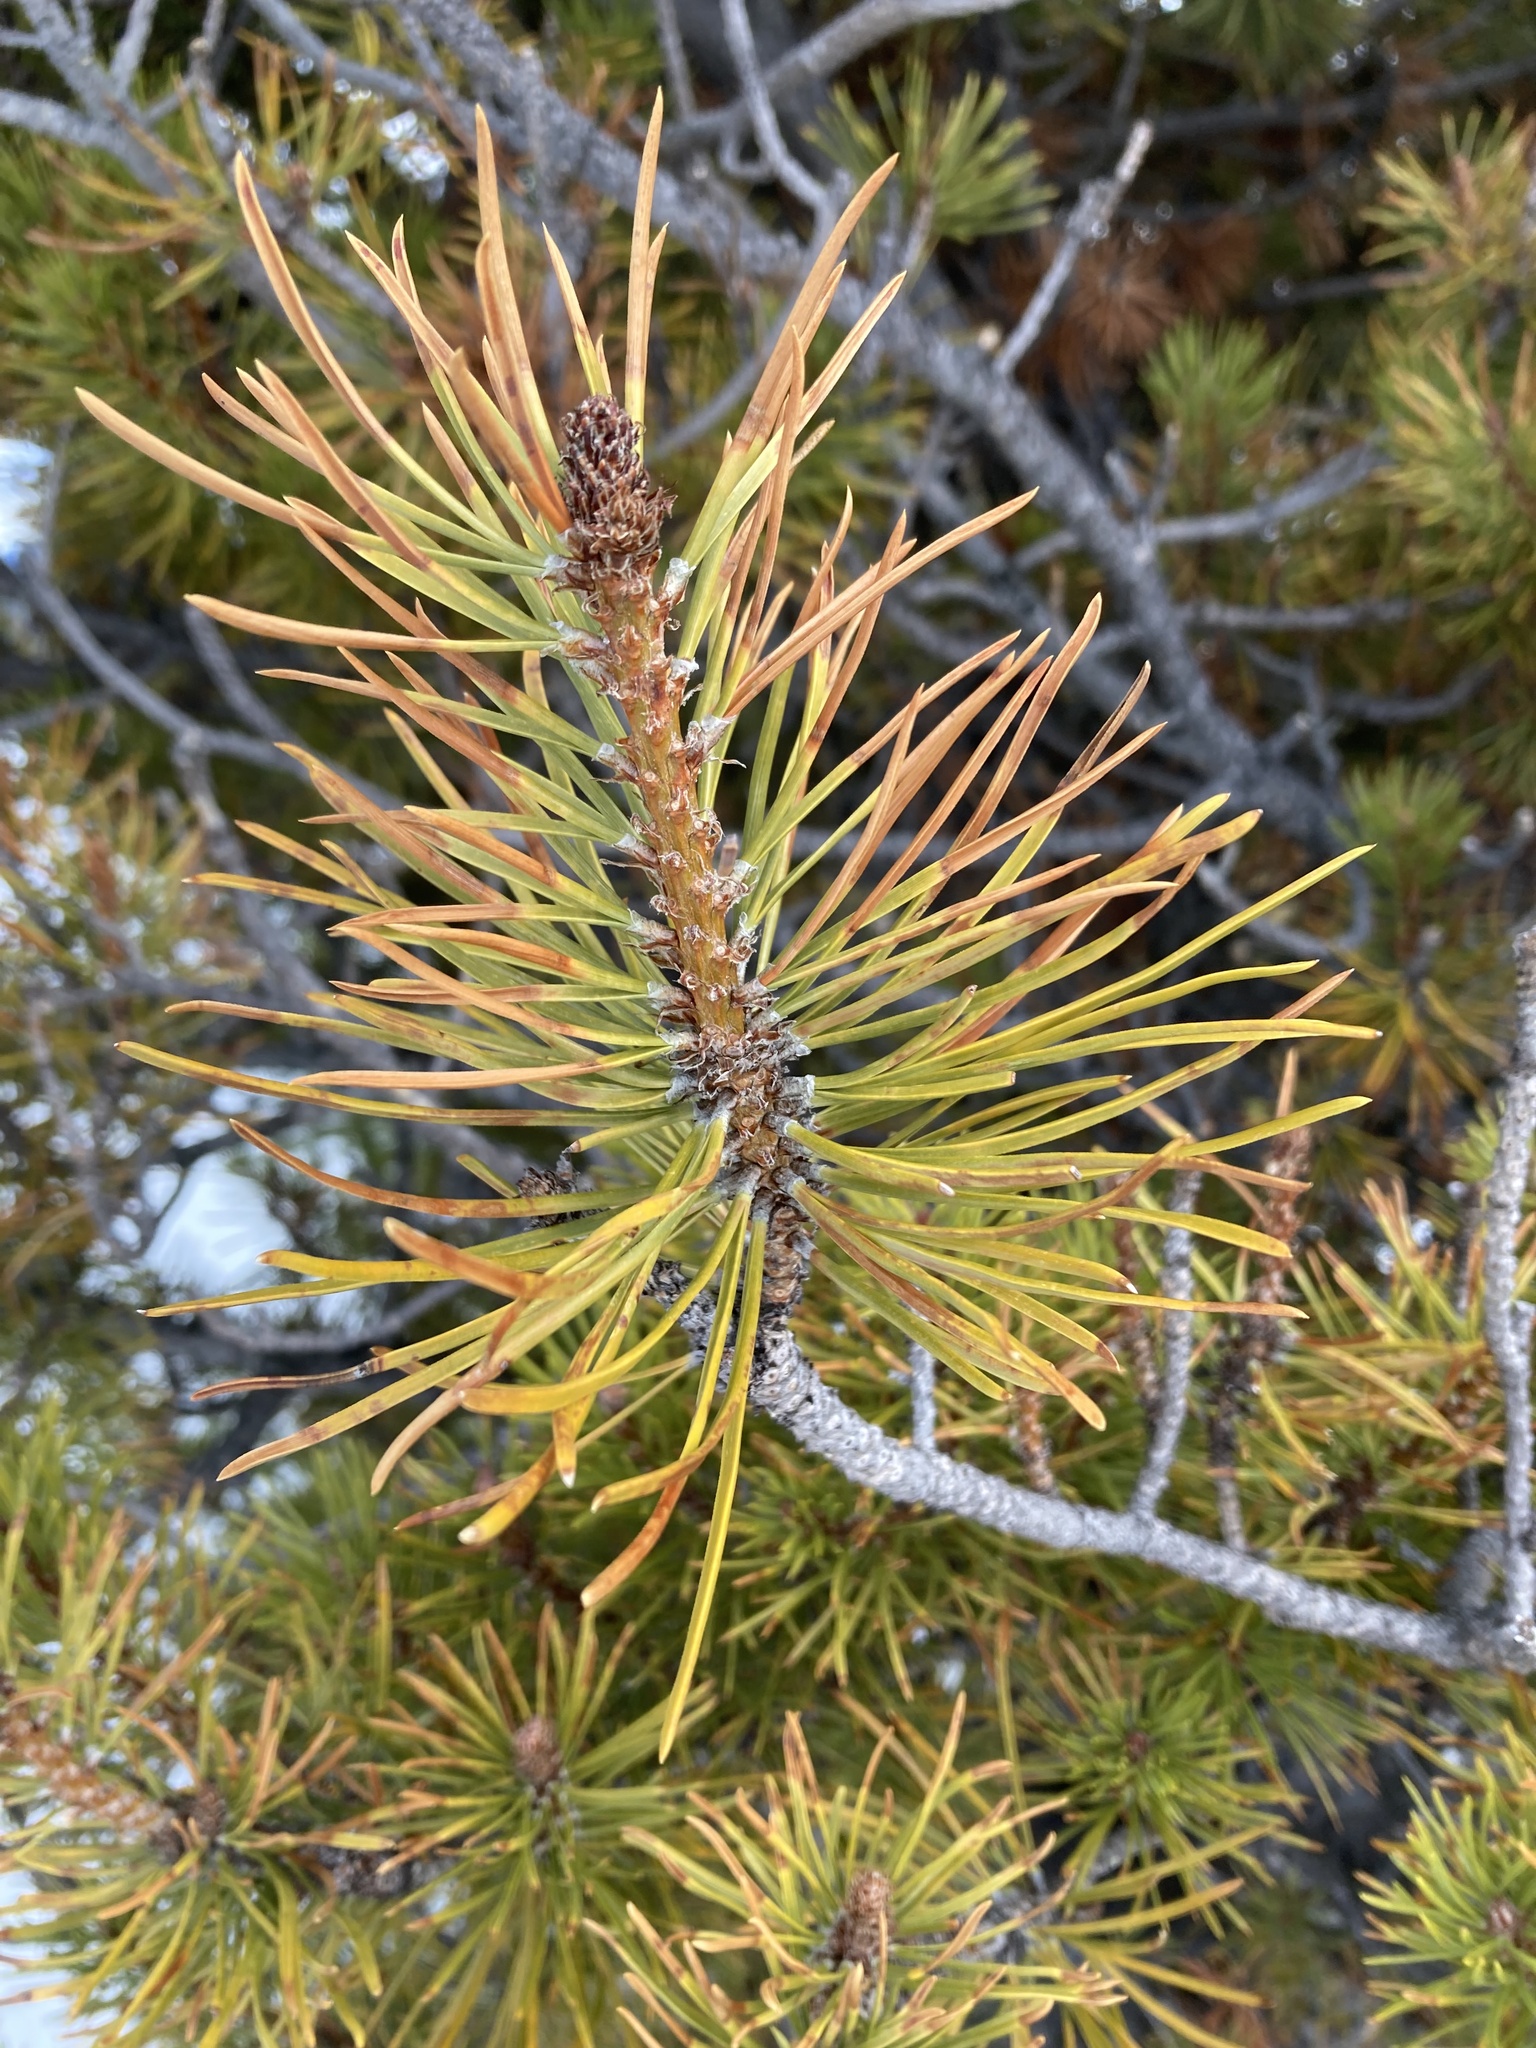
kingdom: Plantae
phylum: Tracheophyta
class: Pinopsida
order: Pinales
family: Pinaceae
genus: Pinus
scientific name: Pinus contorta
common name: Lodgepole pine
